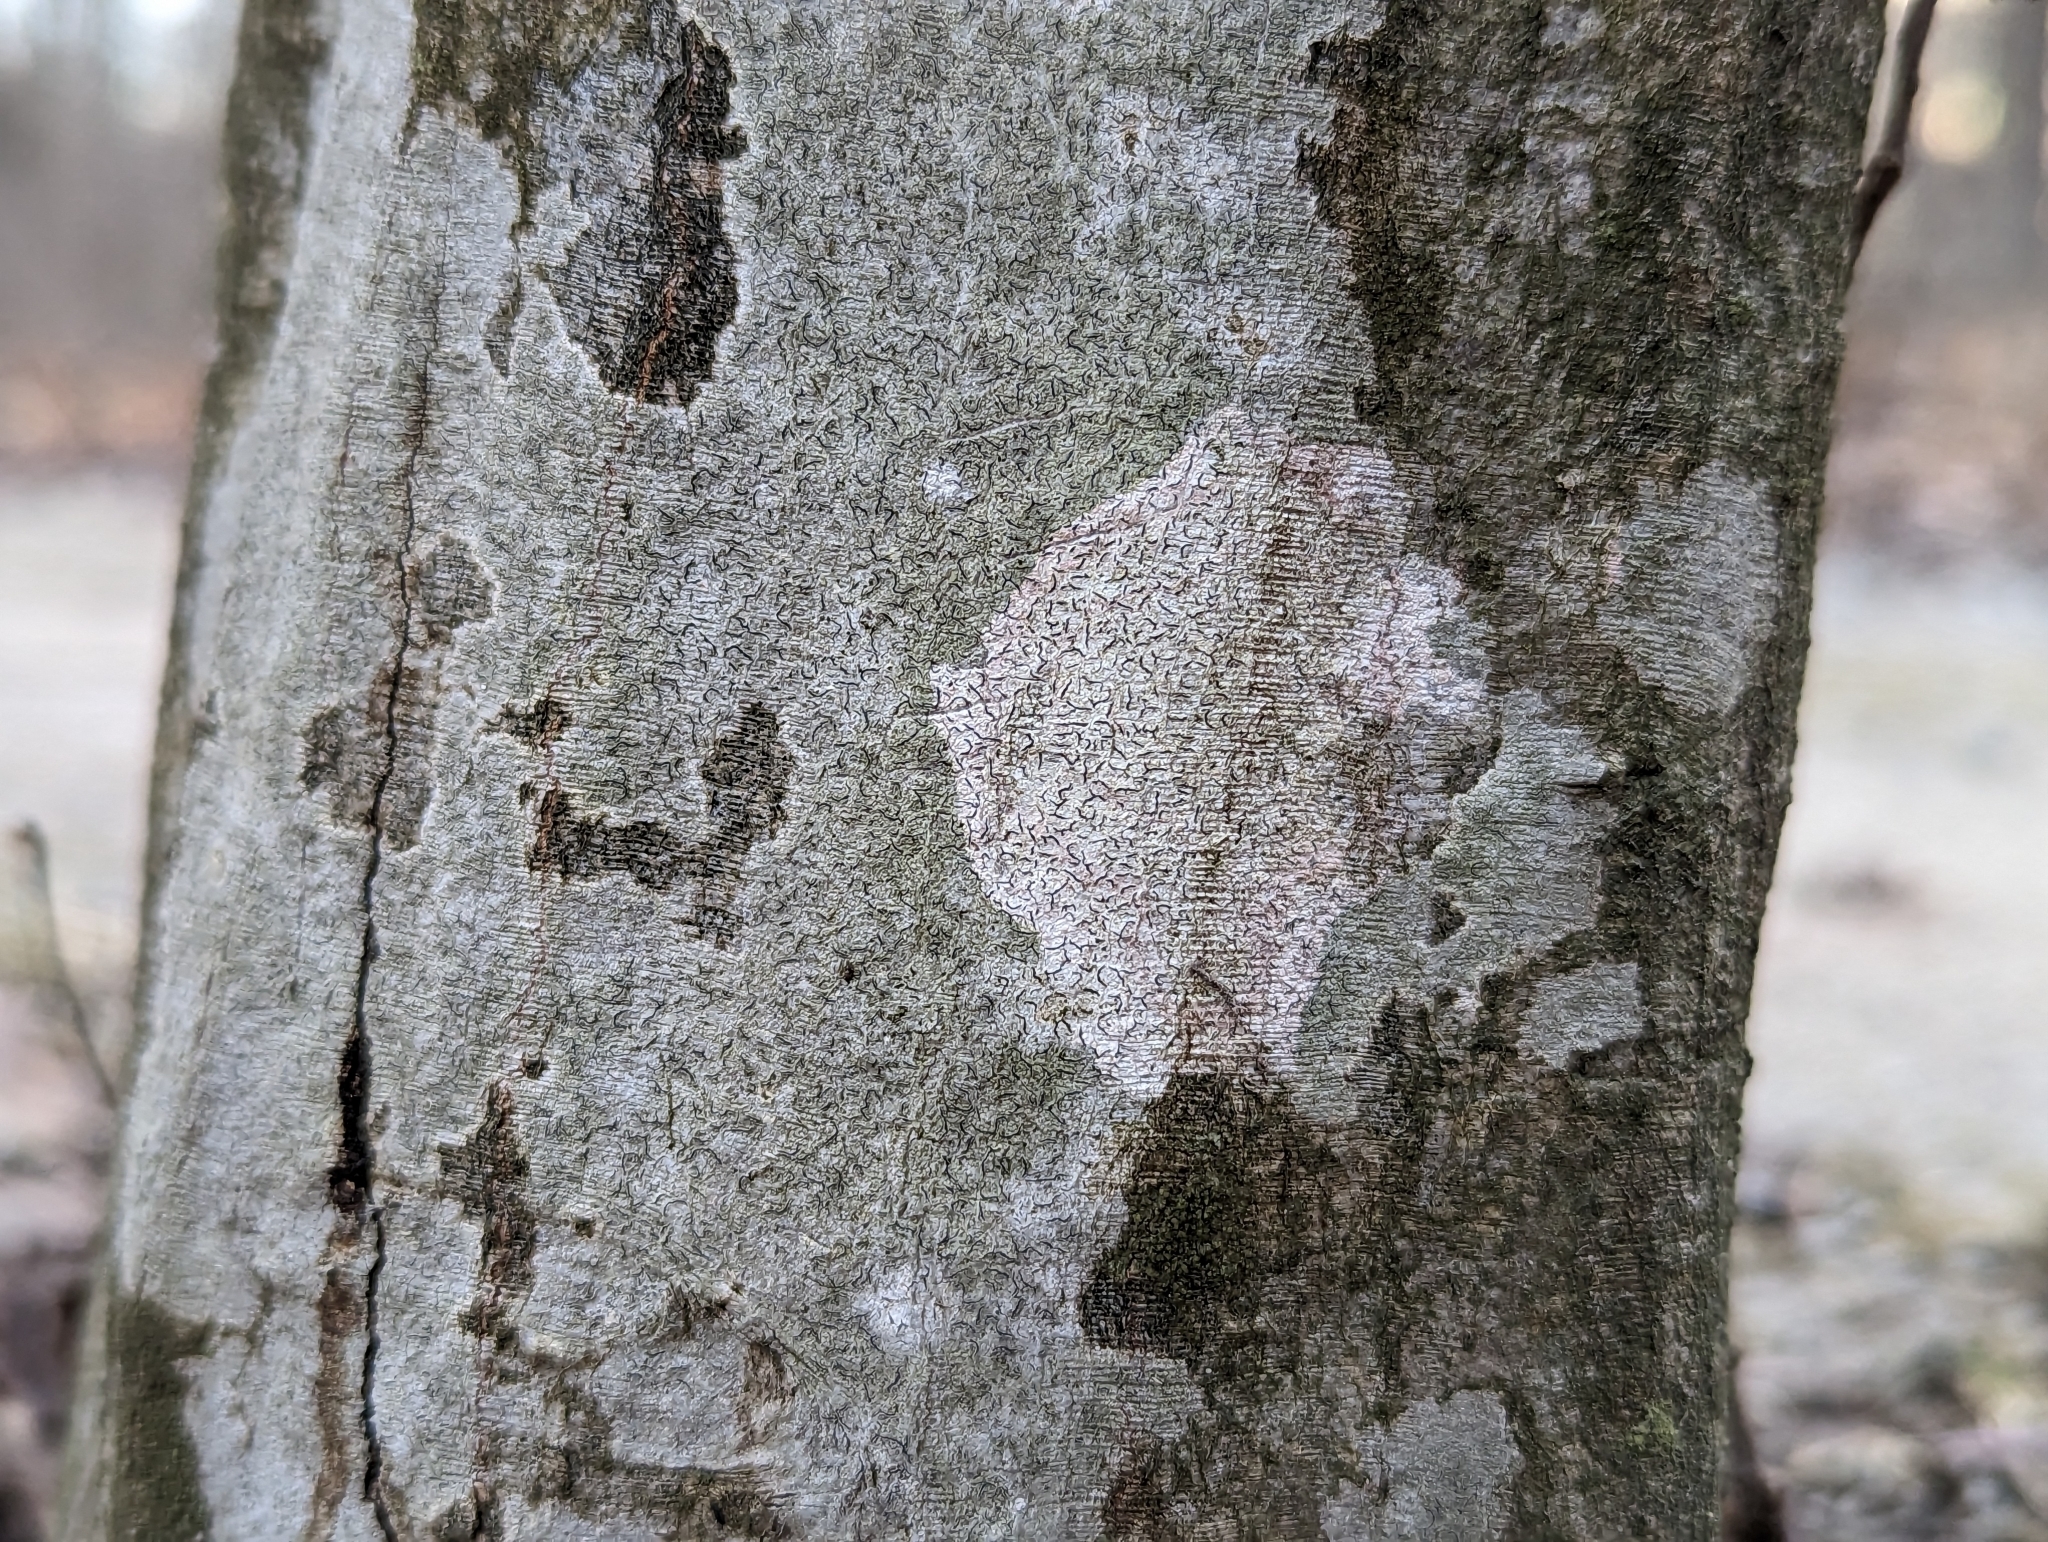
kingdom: Fungi
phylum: Ascomycota
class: Lecanoromycetes
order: Ostropales
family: Graphidaceae
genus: Graphis
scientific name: Graphis scripta
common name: Script lichen
